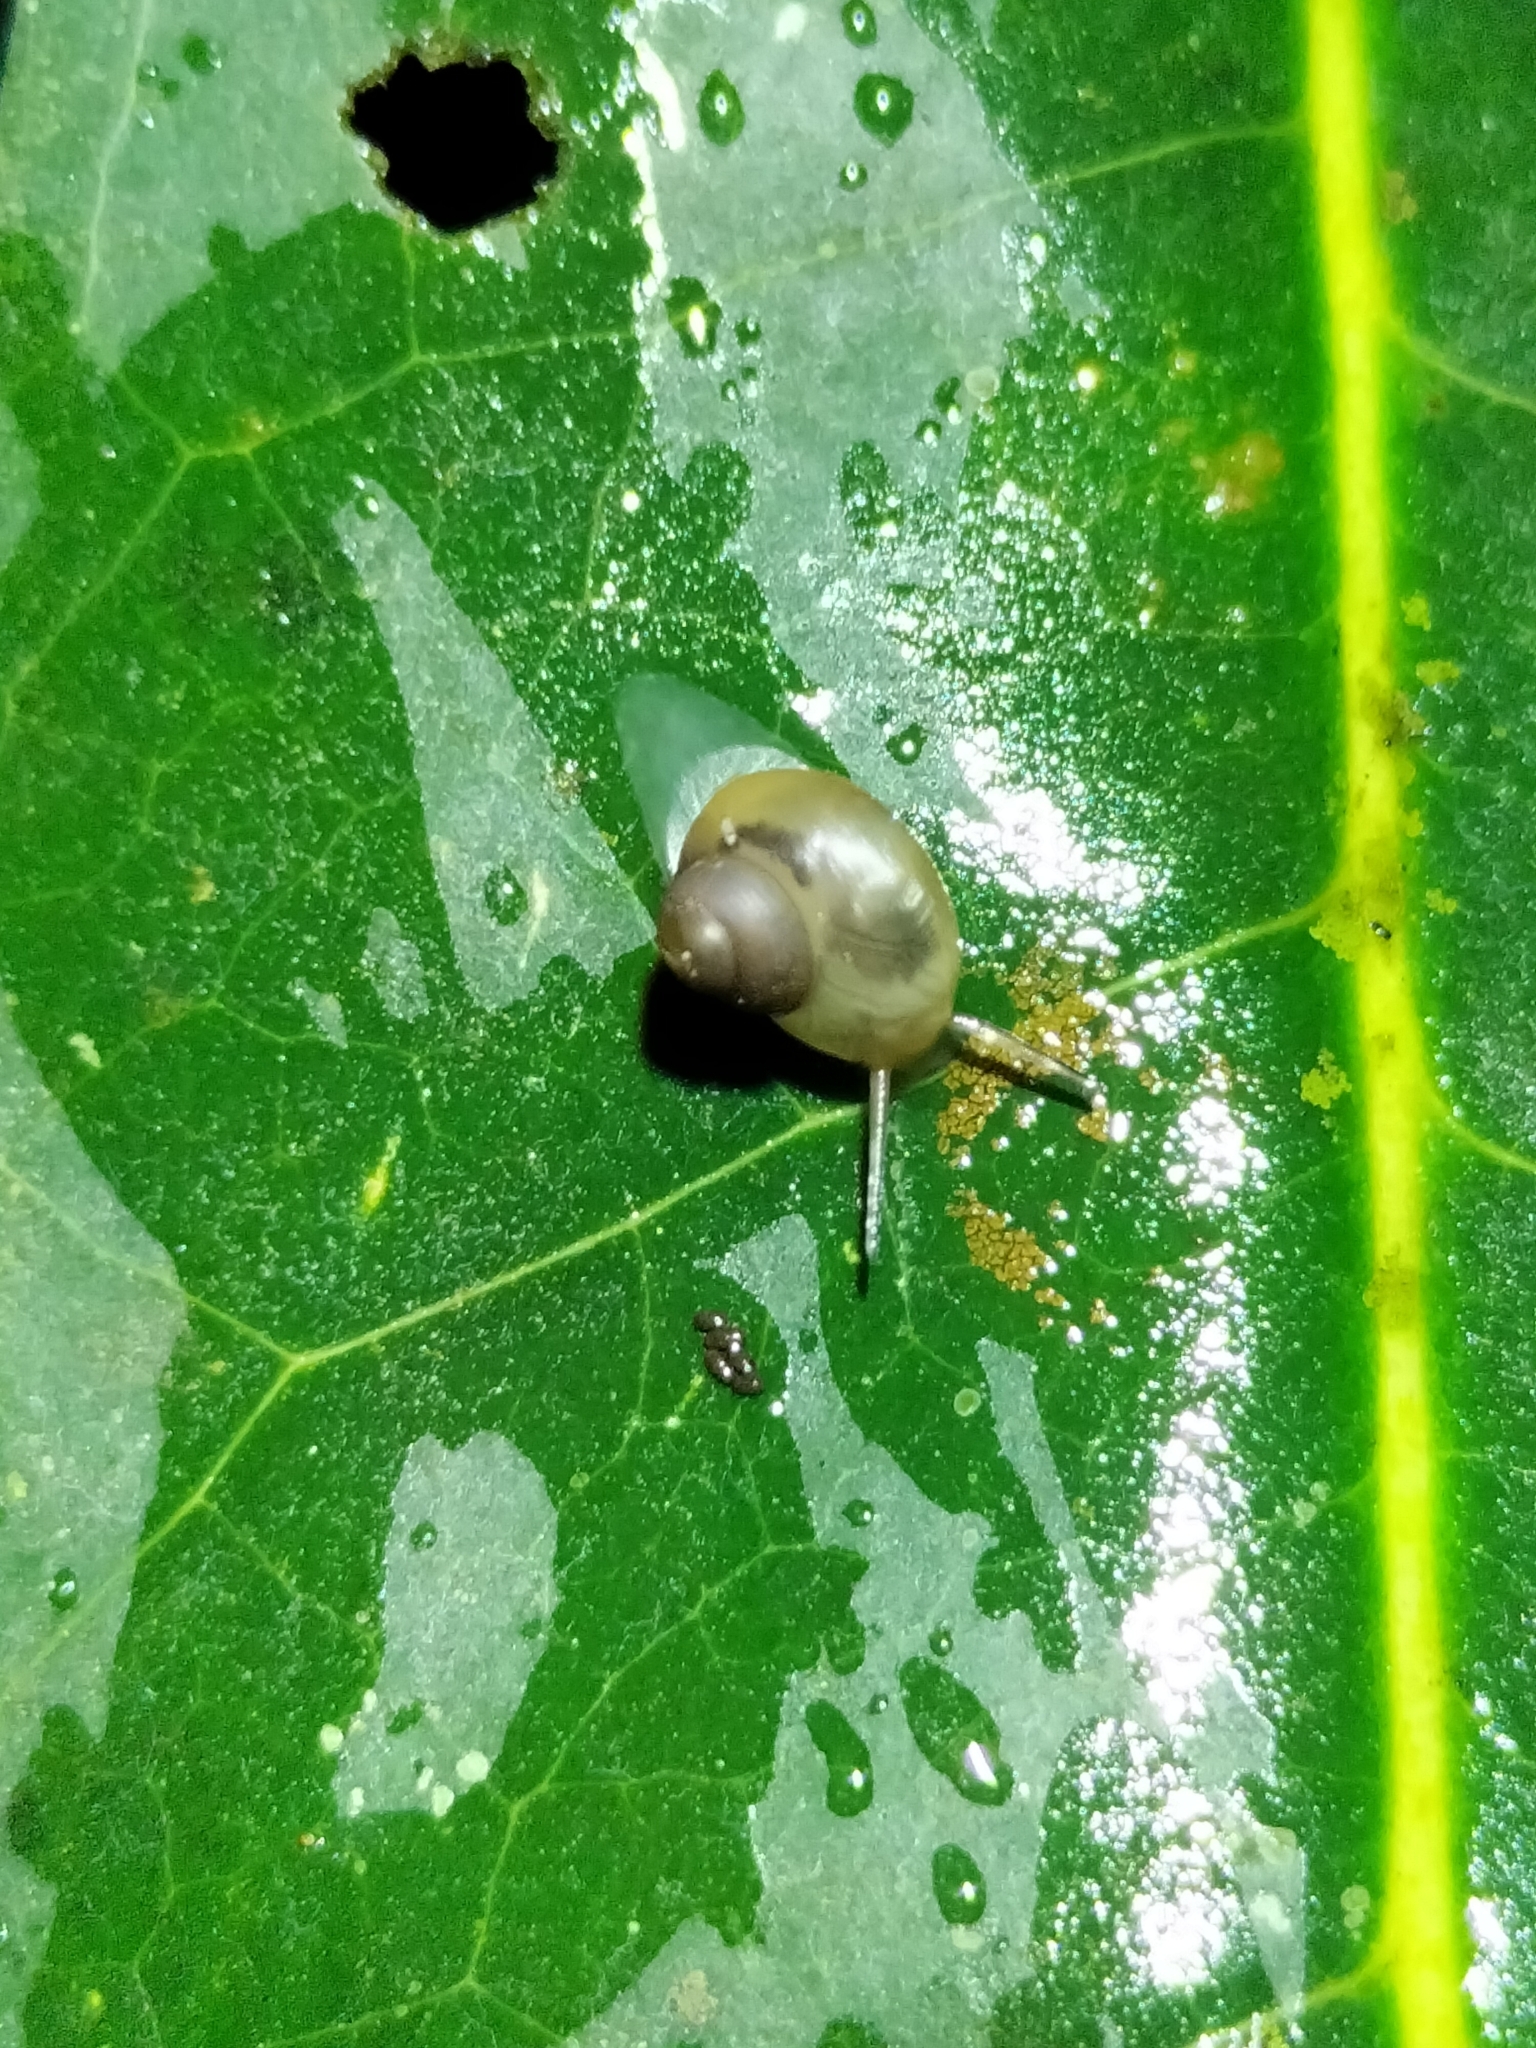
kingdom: Animalia
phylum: Mollusca
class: Gastropoda
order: Architaenioglossa
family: Cyclophoridae
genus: Leptopoma
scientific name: Leptopoma perlucidum
